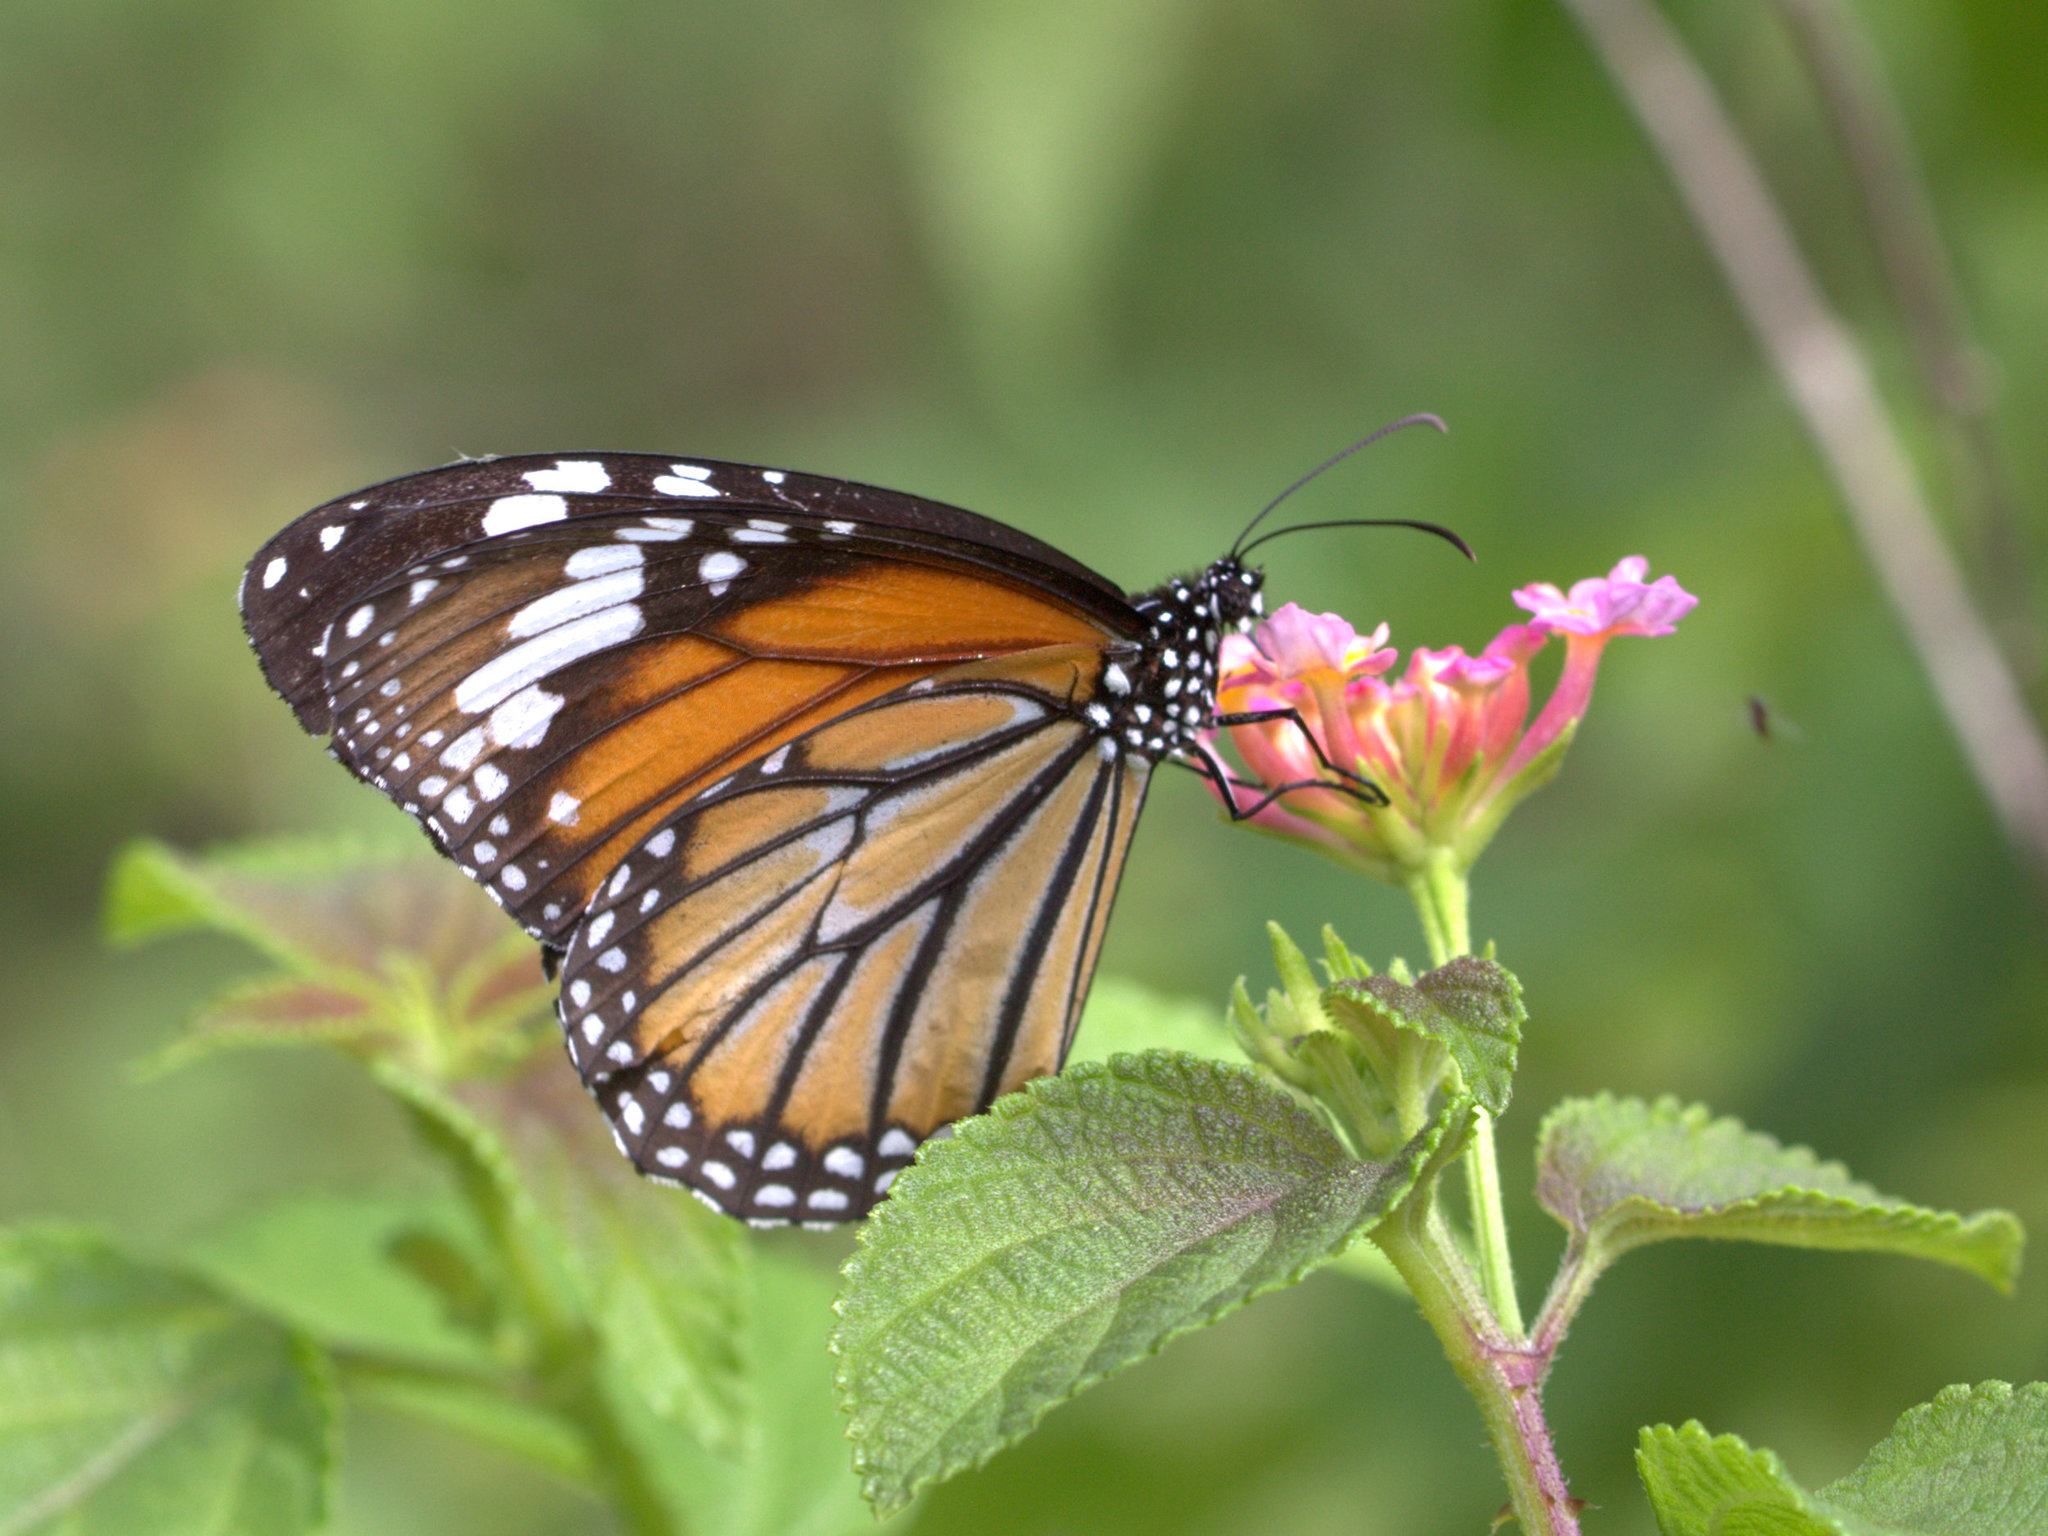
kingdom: Animalia
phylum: Arthropoda
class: Insecta
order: Lepidoptera
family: Nymphalidae
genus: Danaus
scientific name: Danaus genutia
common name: Common tiger butterfly
